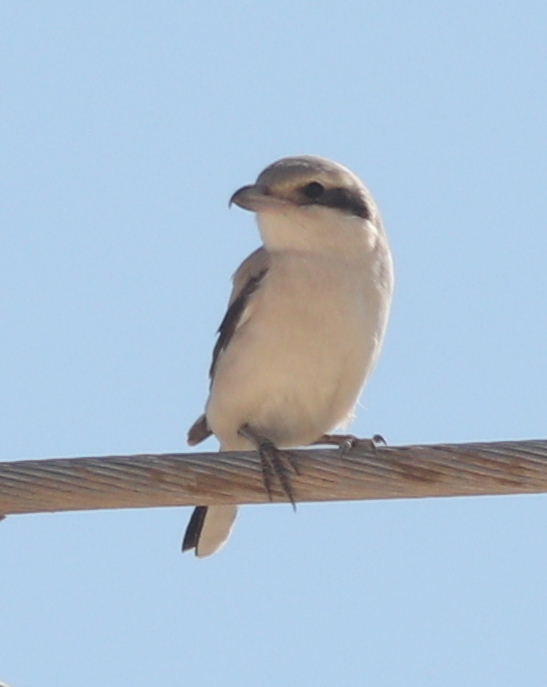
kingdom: Animalia
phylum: Chordata
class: Aves
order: Passeriformes
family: Laniidae
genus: Lanius
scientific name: Lanius excubitor
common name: Great grey shrike
